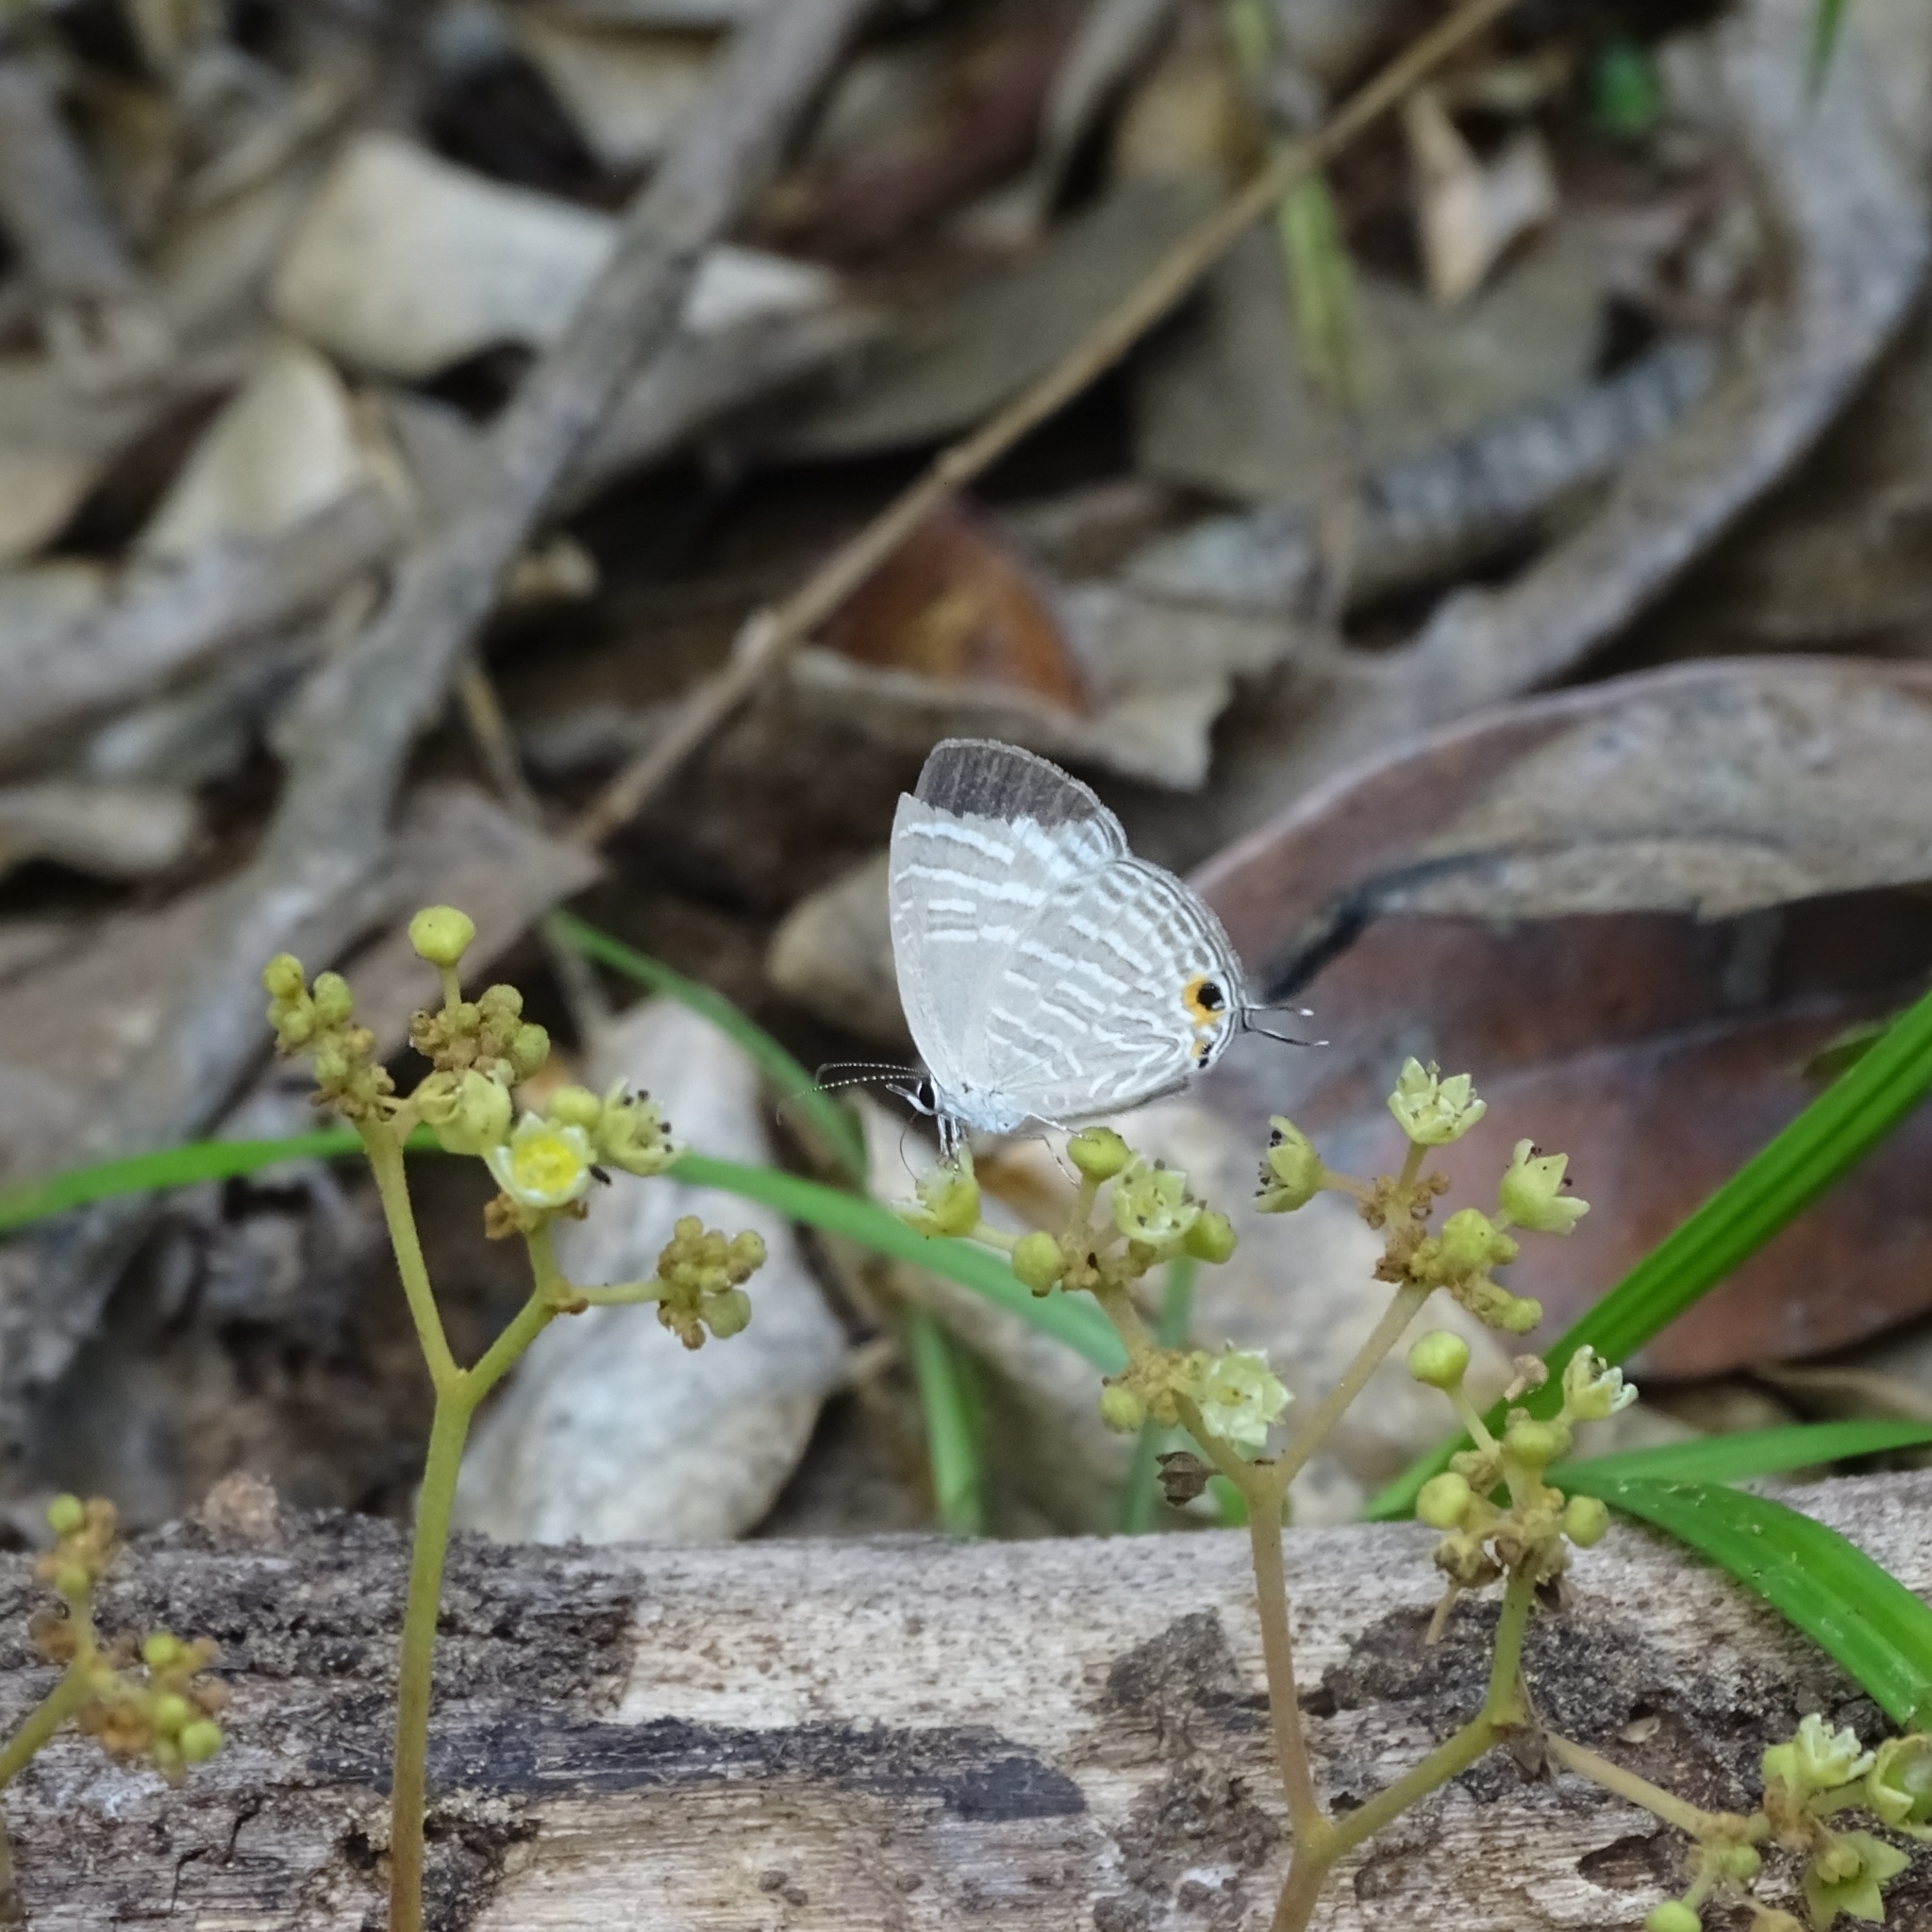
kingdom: Animalia
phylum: Arthropoda
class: Insecta
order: Lepidoptera
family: Lycaenidae
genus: Jamides
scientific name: Jamides celeno
